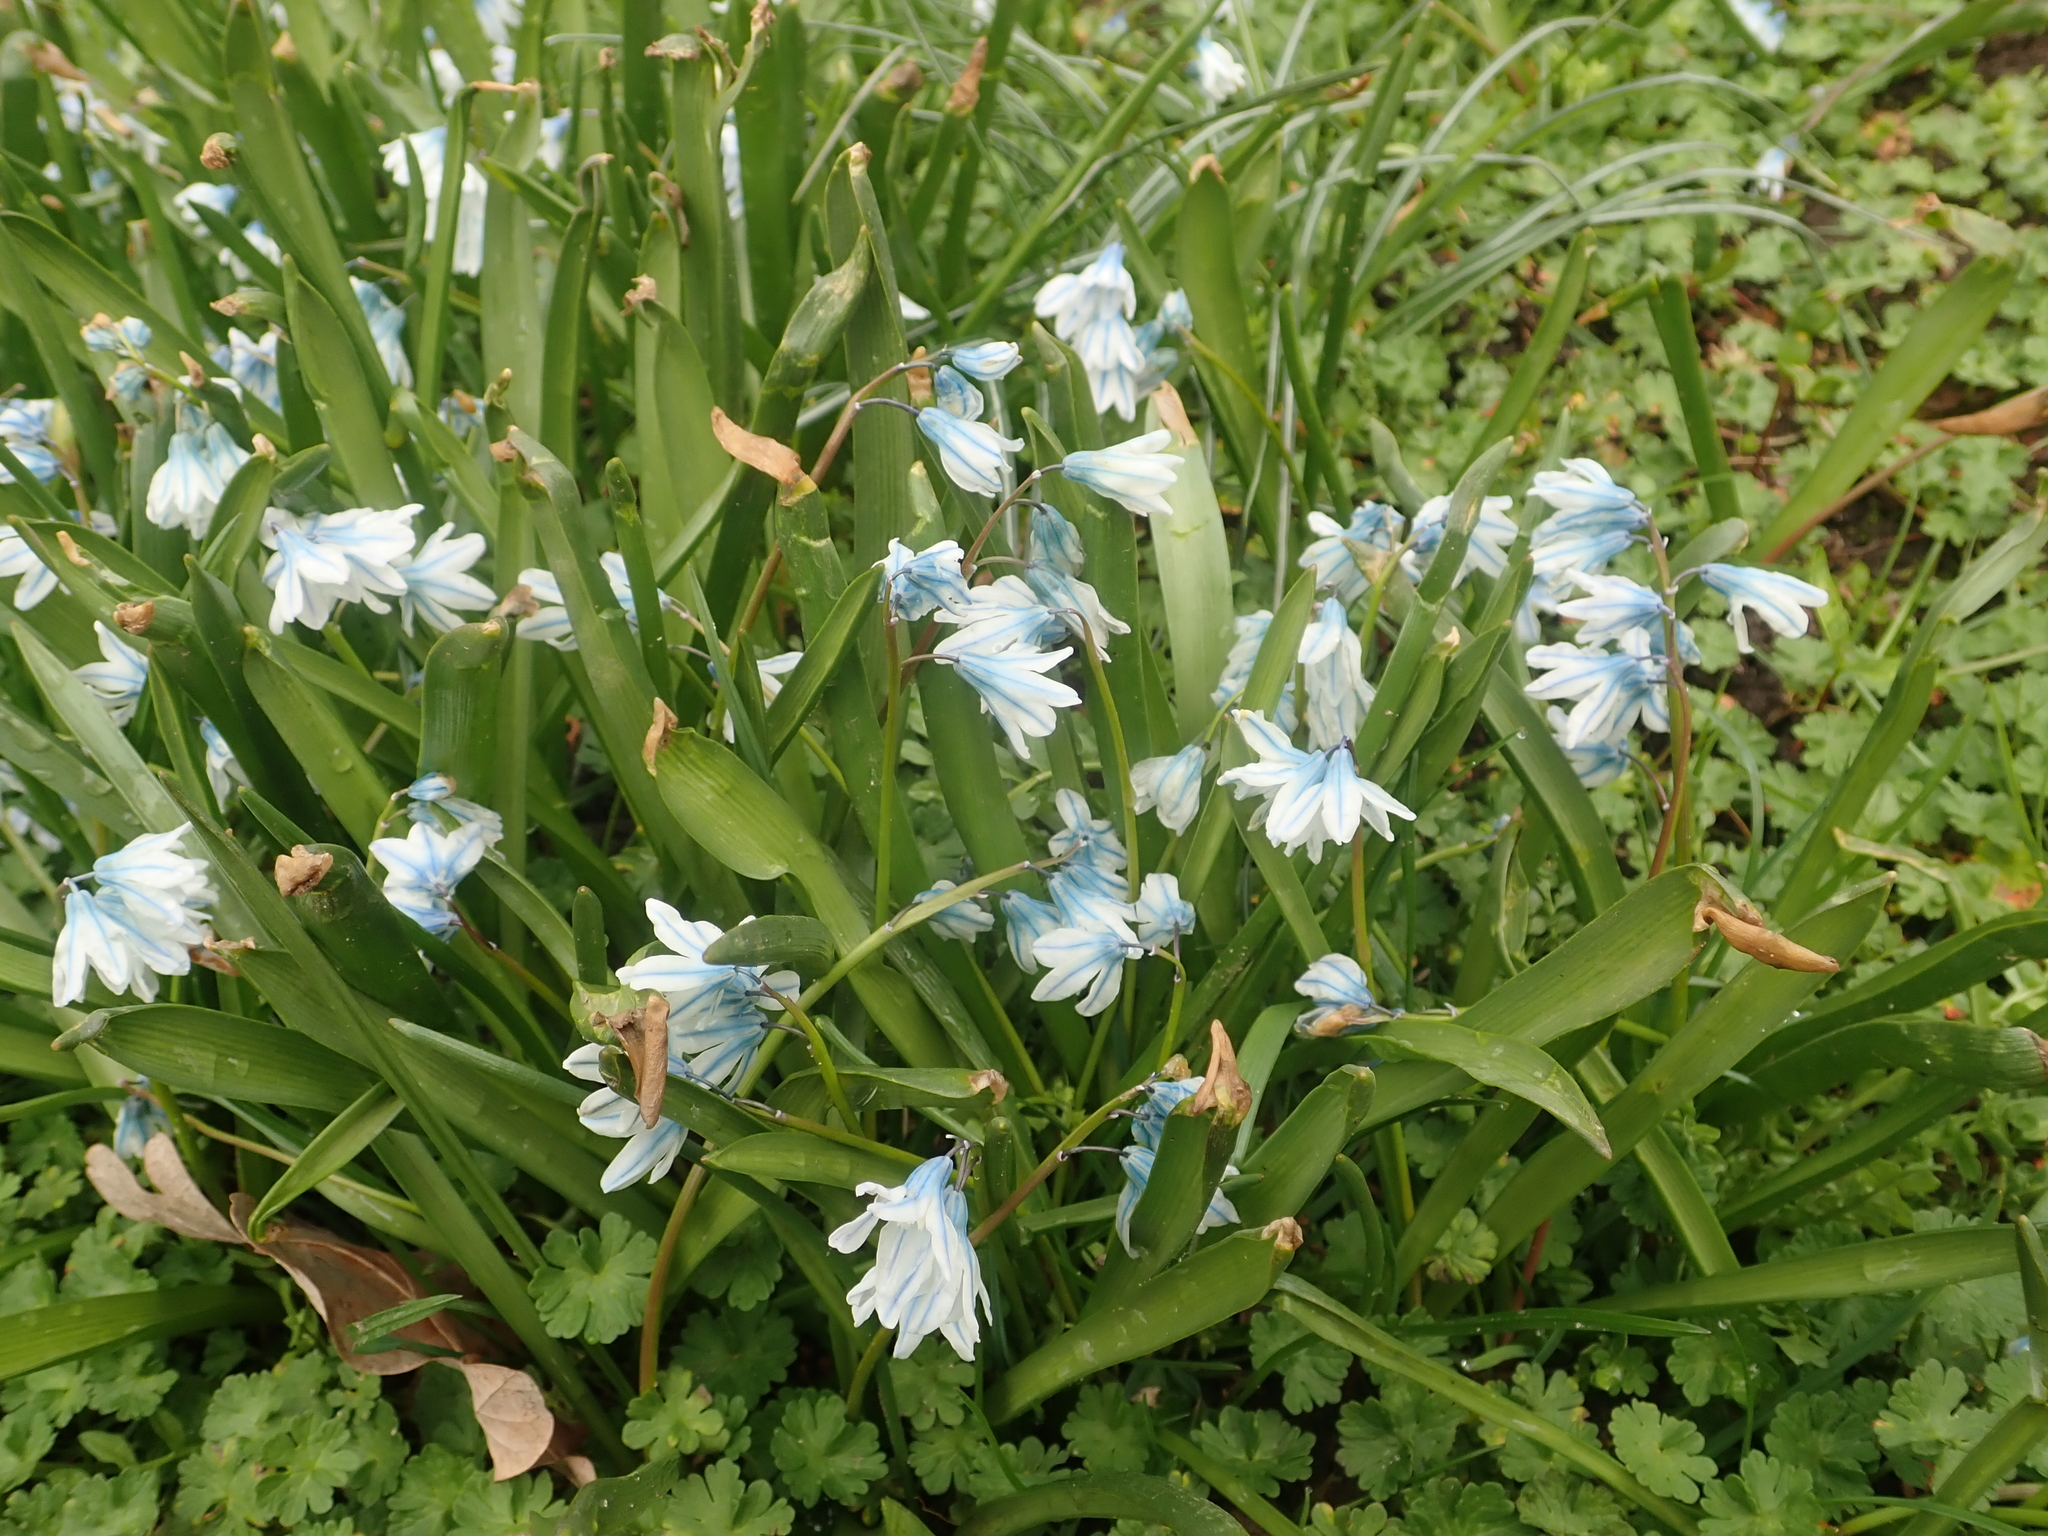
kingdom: Plantae
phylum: Tracheophyta
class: Liliopsida
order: Asparagales
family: Asparagaceae
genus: Puschkinia
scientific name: Puschkinia scilloides
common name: Striped squill
